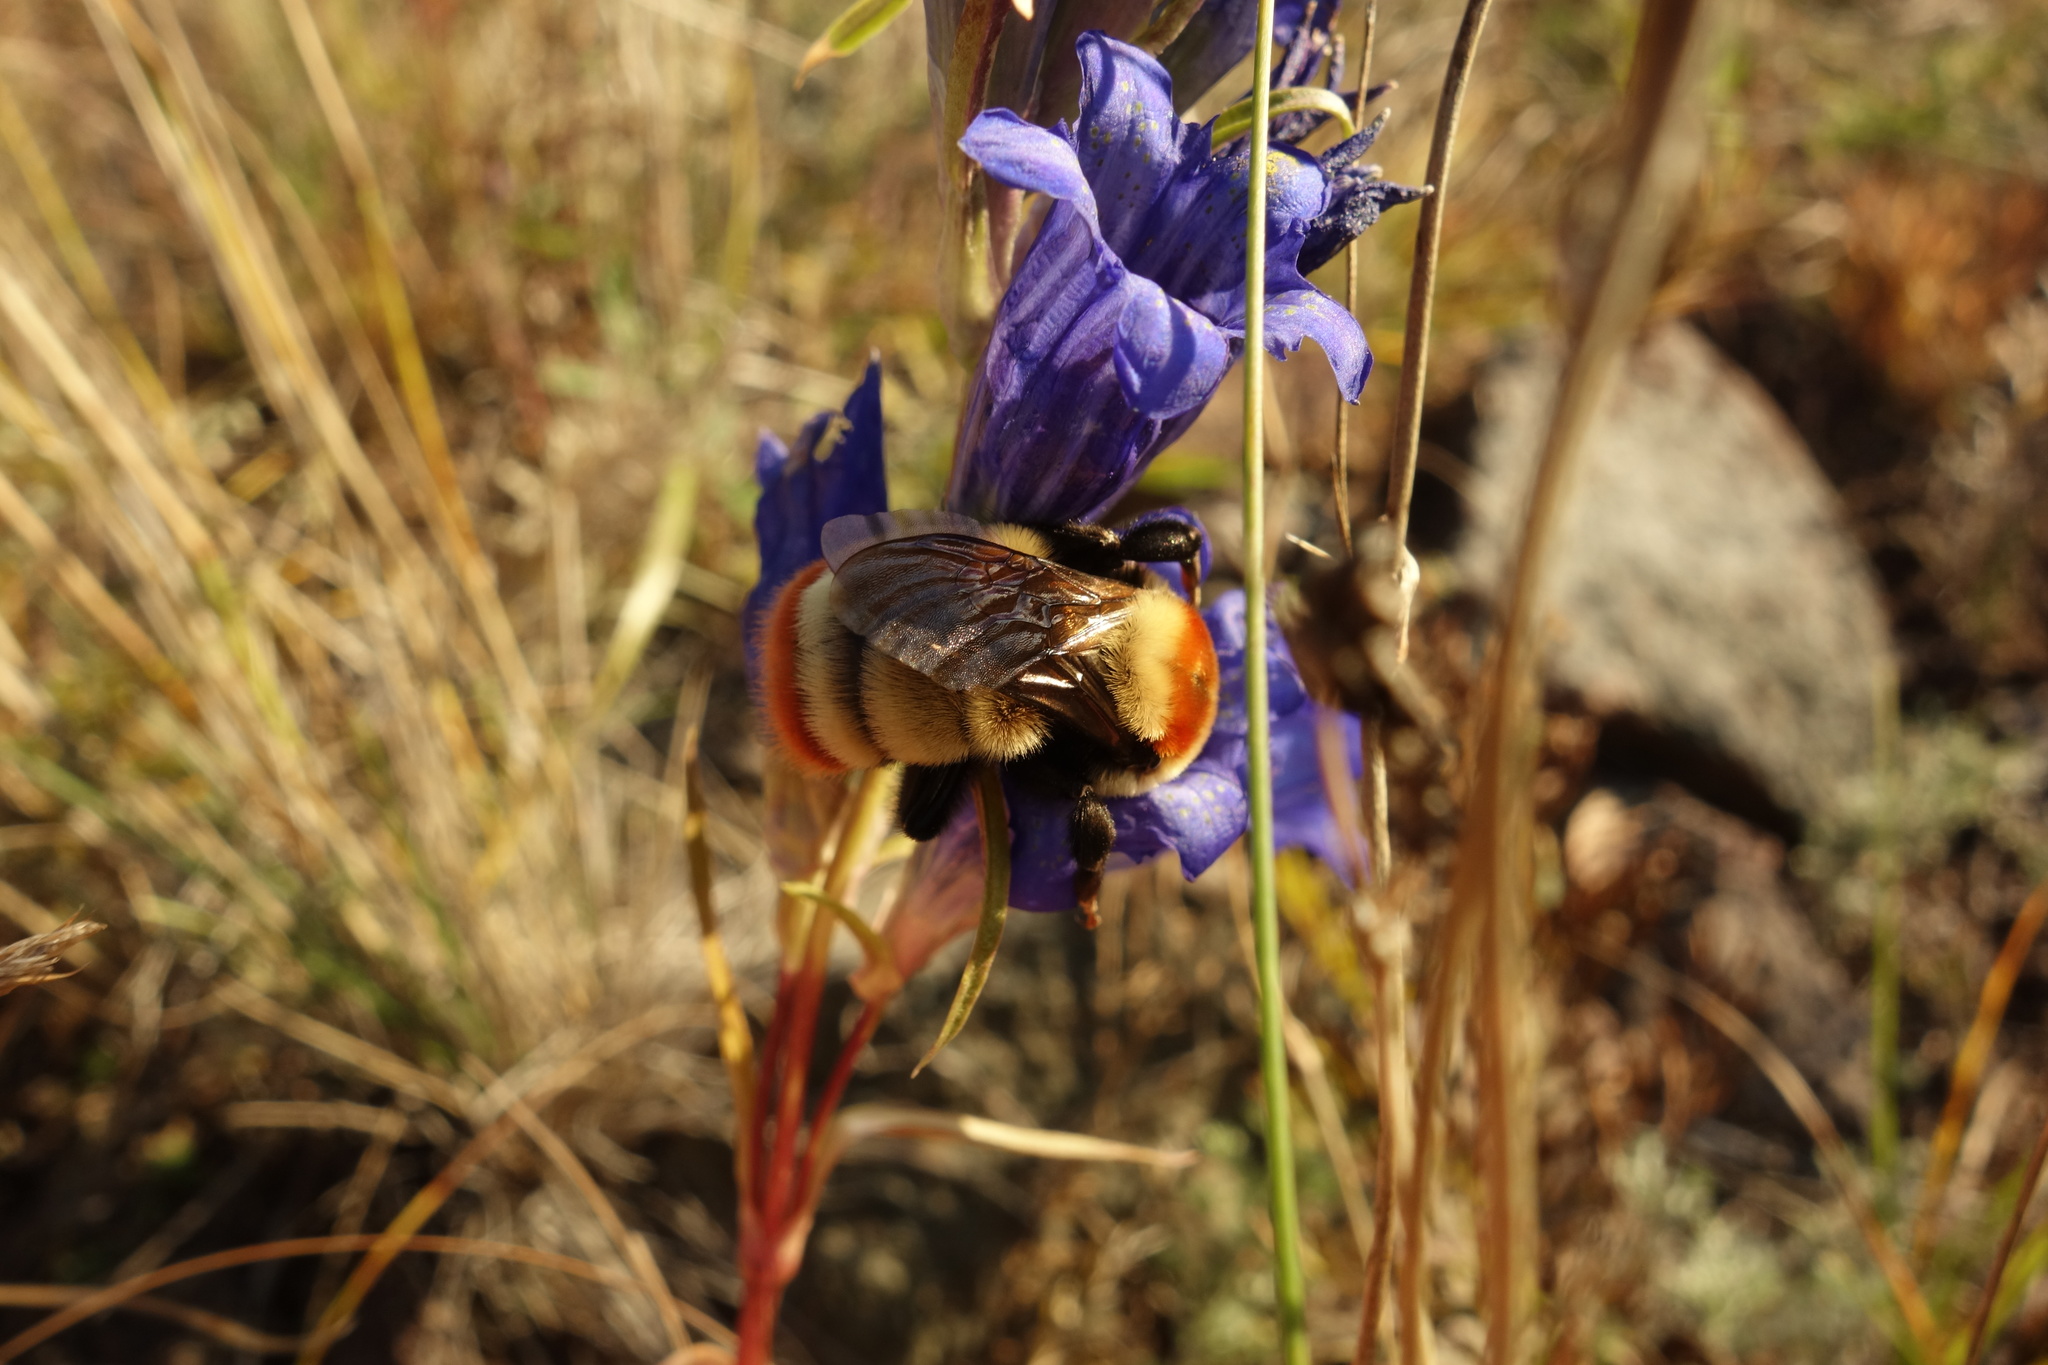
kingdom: Animalia
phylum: Arthropoda
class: Insecta
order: Hymenoptera
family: Apidae
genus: Bombus
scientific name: Bombus sibiricus
